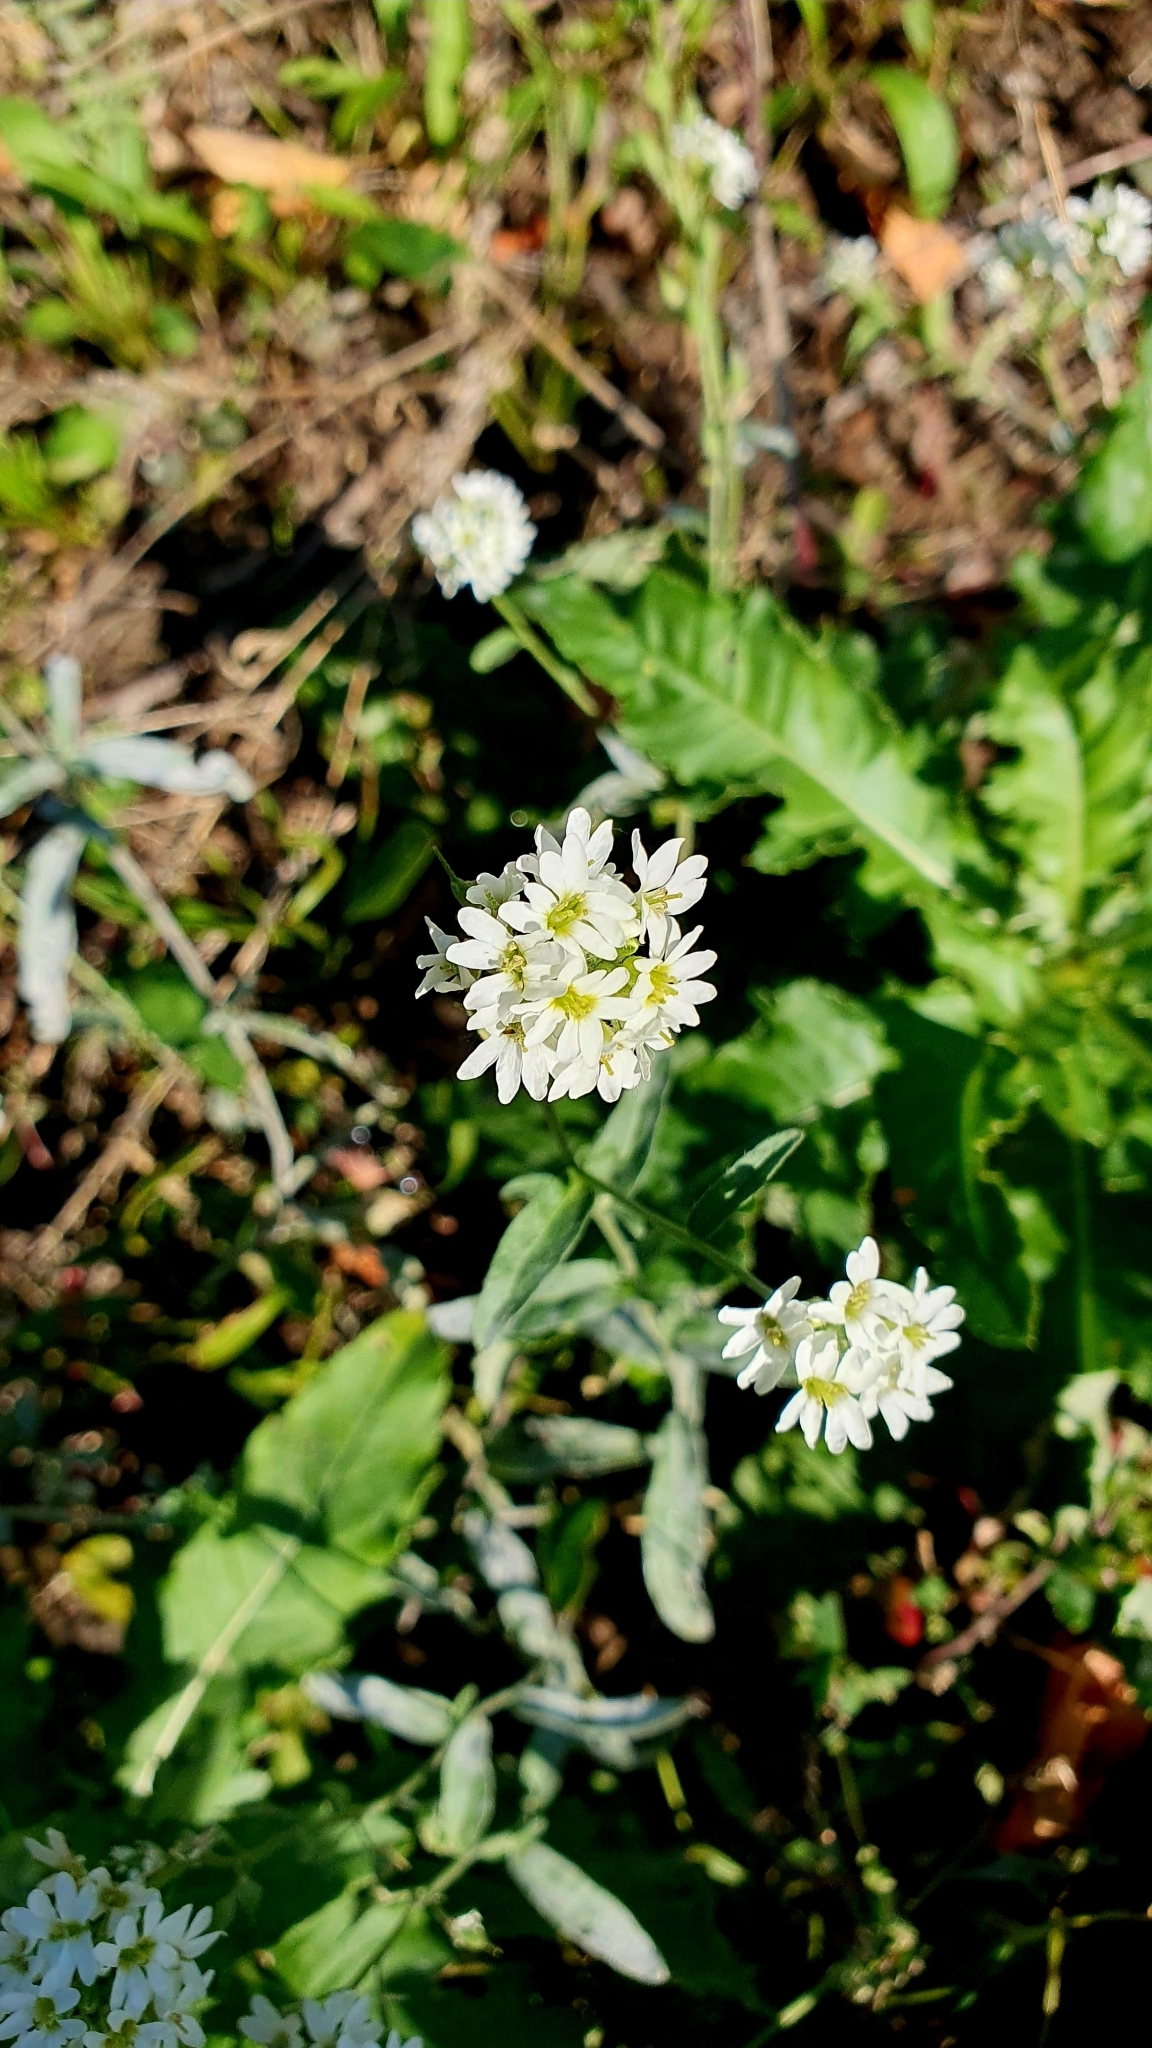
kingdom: Plantae
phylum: Tracheophyta
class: Magnoliopsida
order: Brassicales
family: Brassicaceae
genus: Berteroa
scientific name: Berteroa incana
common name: Hoary alison
